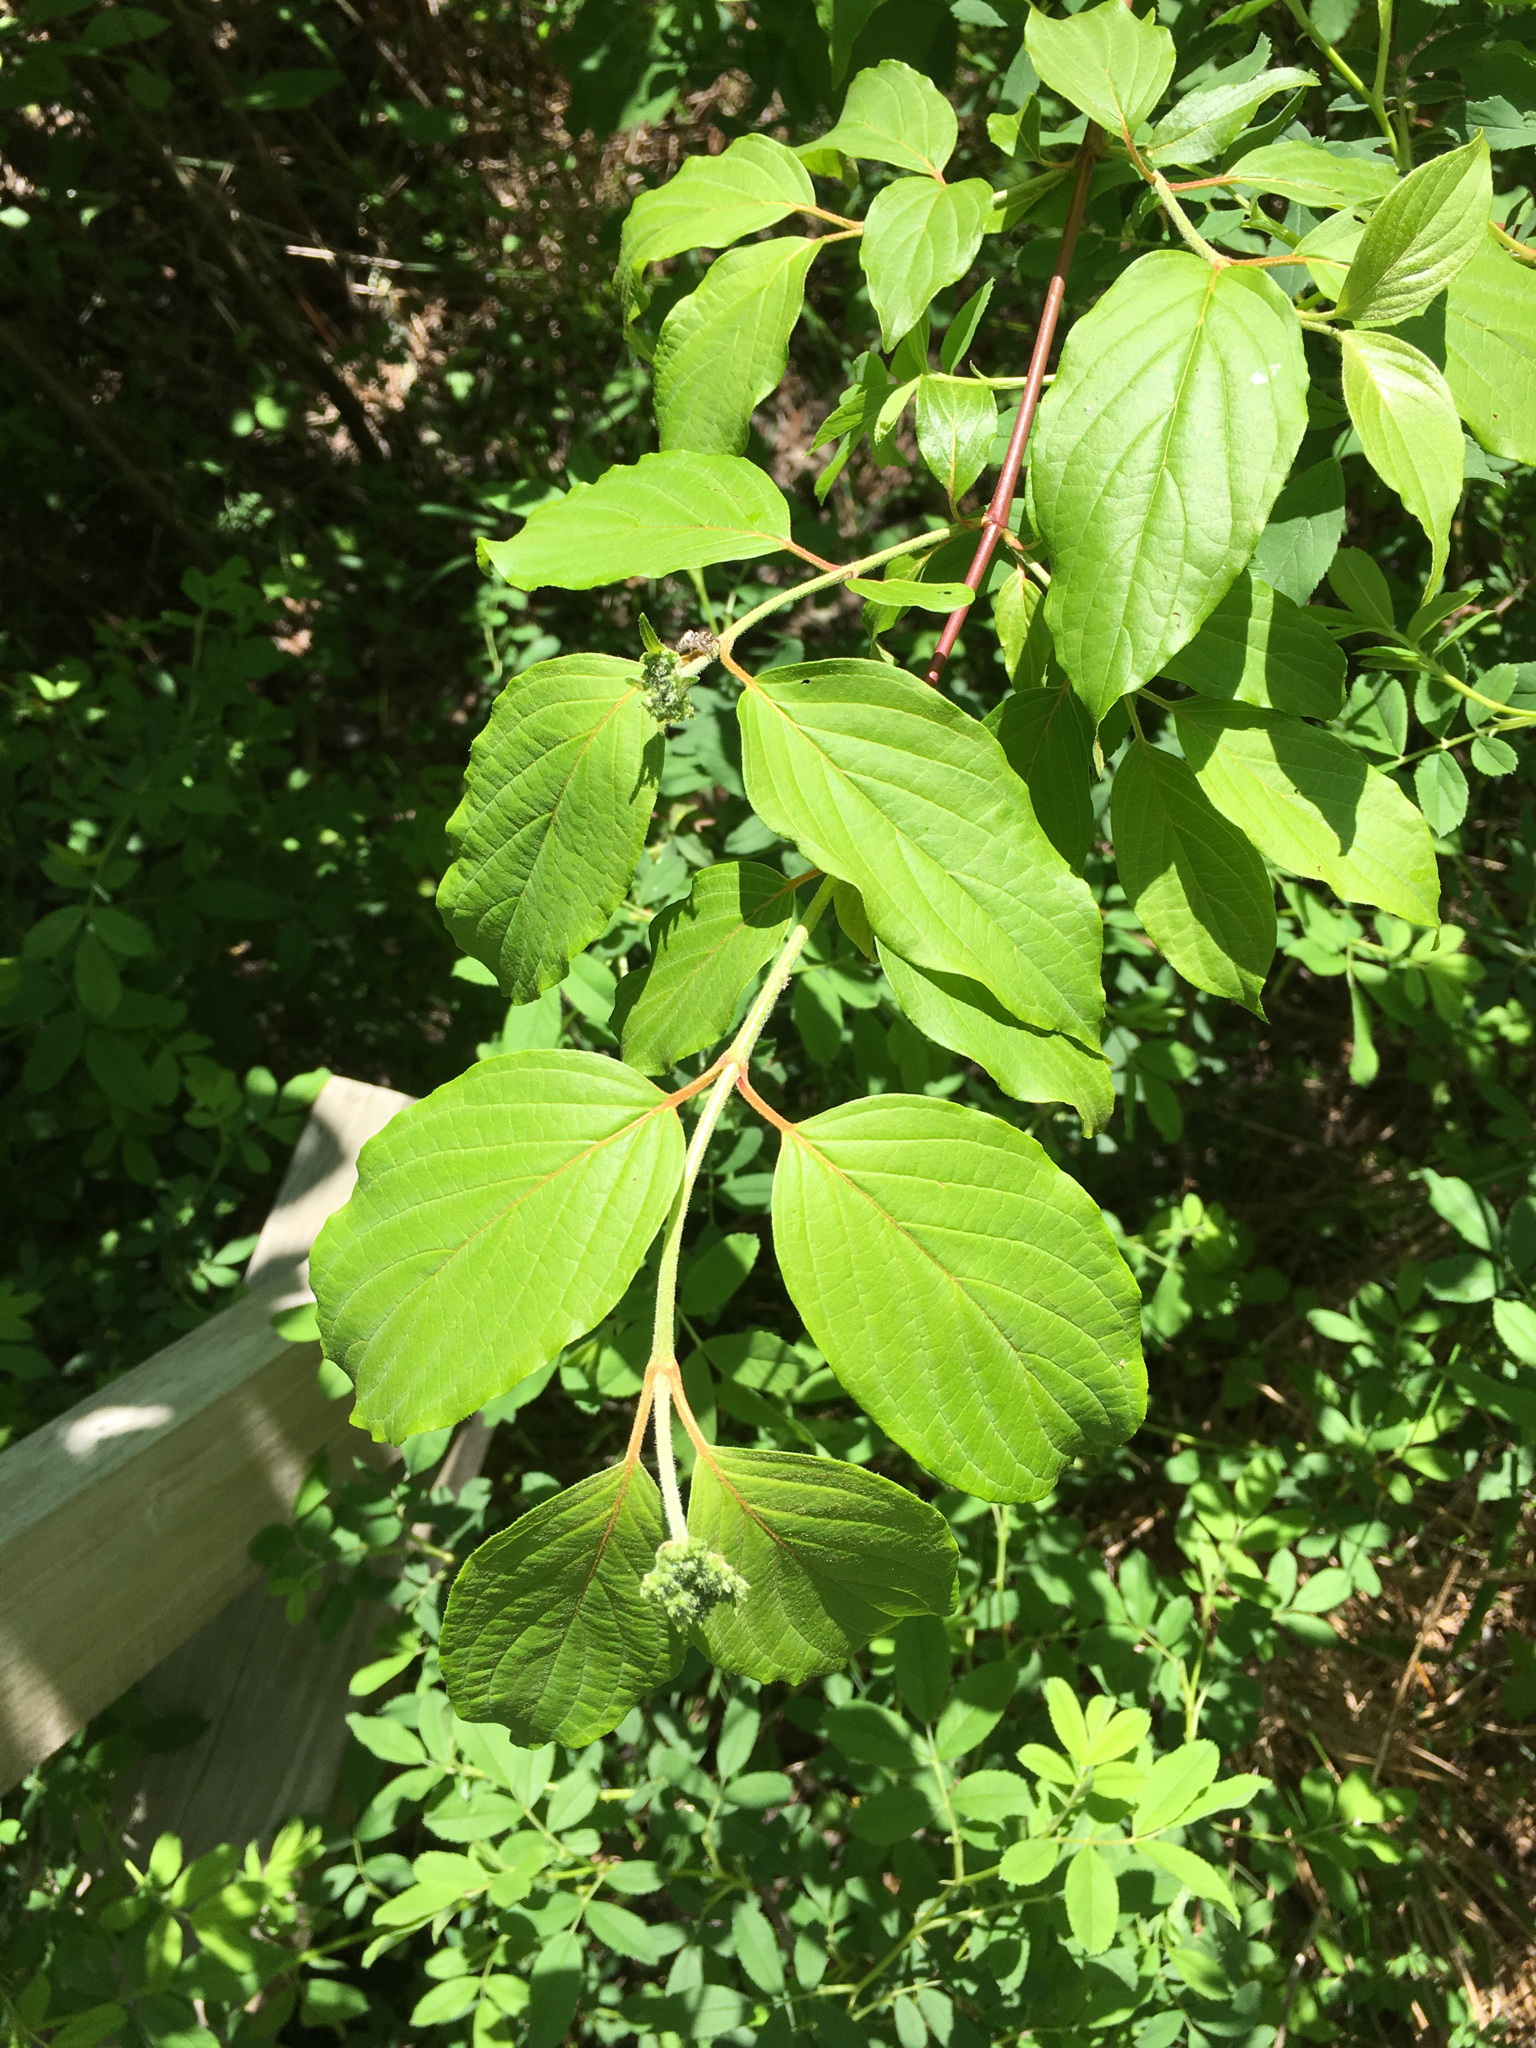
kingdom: Plantae
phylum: Tracheophyta
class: Magnoliopsida
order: Cornales
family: Cornaceae
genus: Cornus
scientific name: Cornus amomum
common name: Silky dogwood
